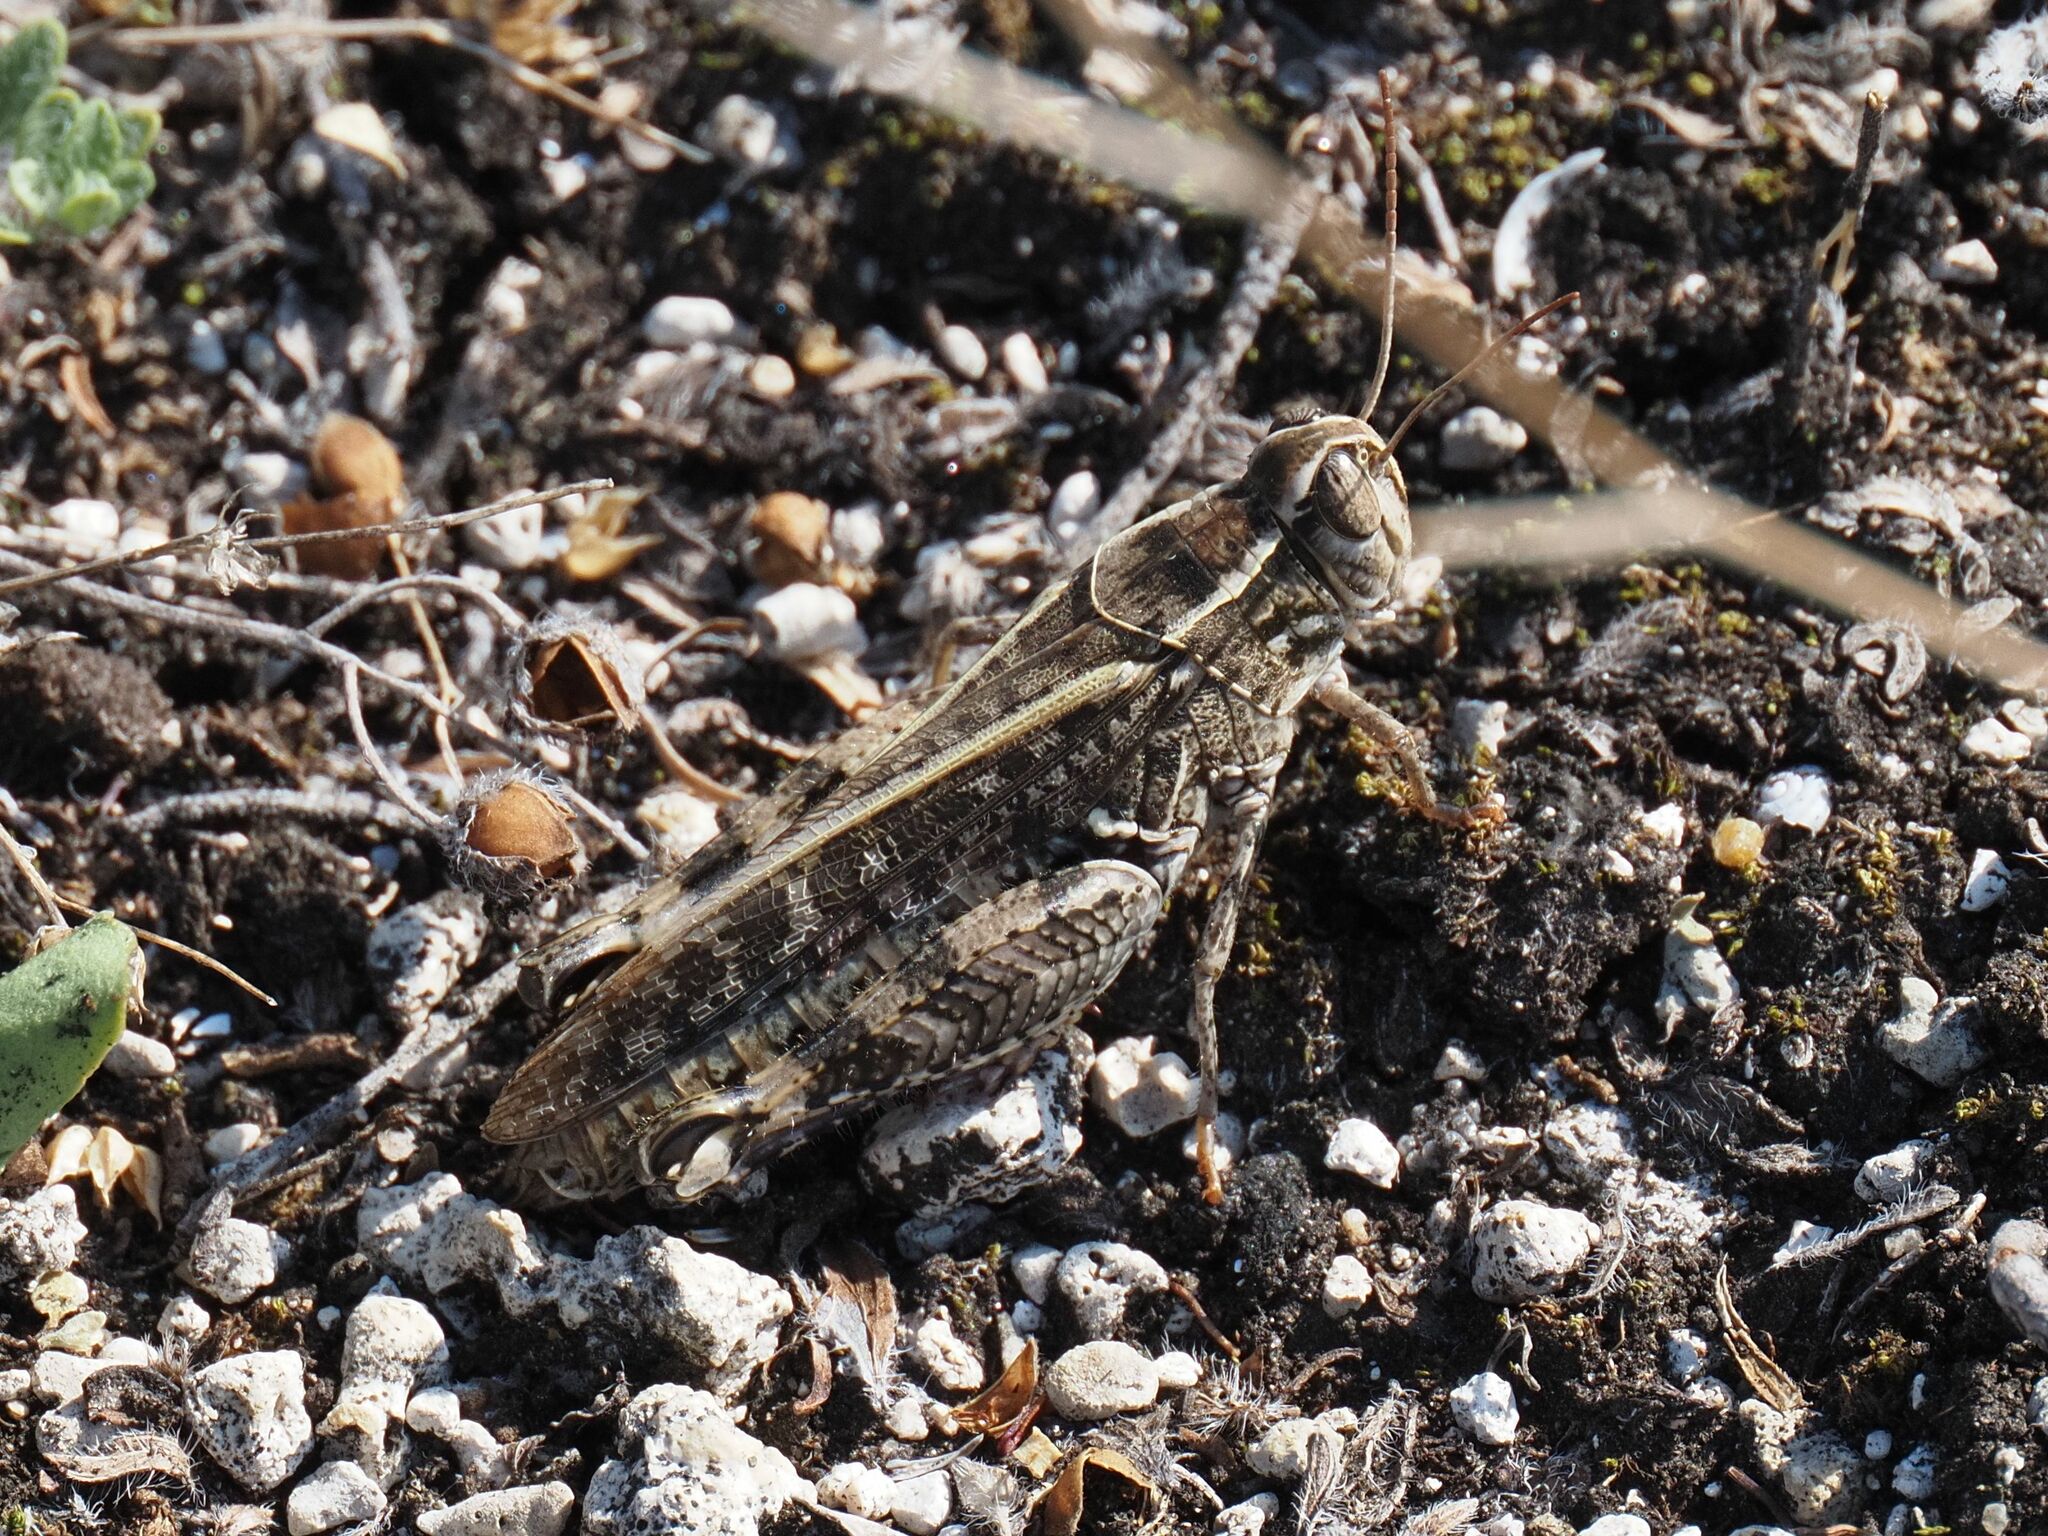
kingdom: Animalia
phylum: Arthropoda
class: Insecta
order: Orthoptera
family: Acrididae
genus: Calliptamus
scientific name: Calliptamus italicus
